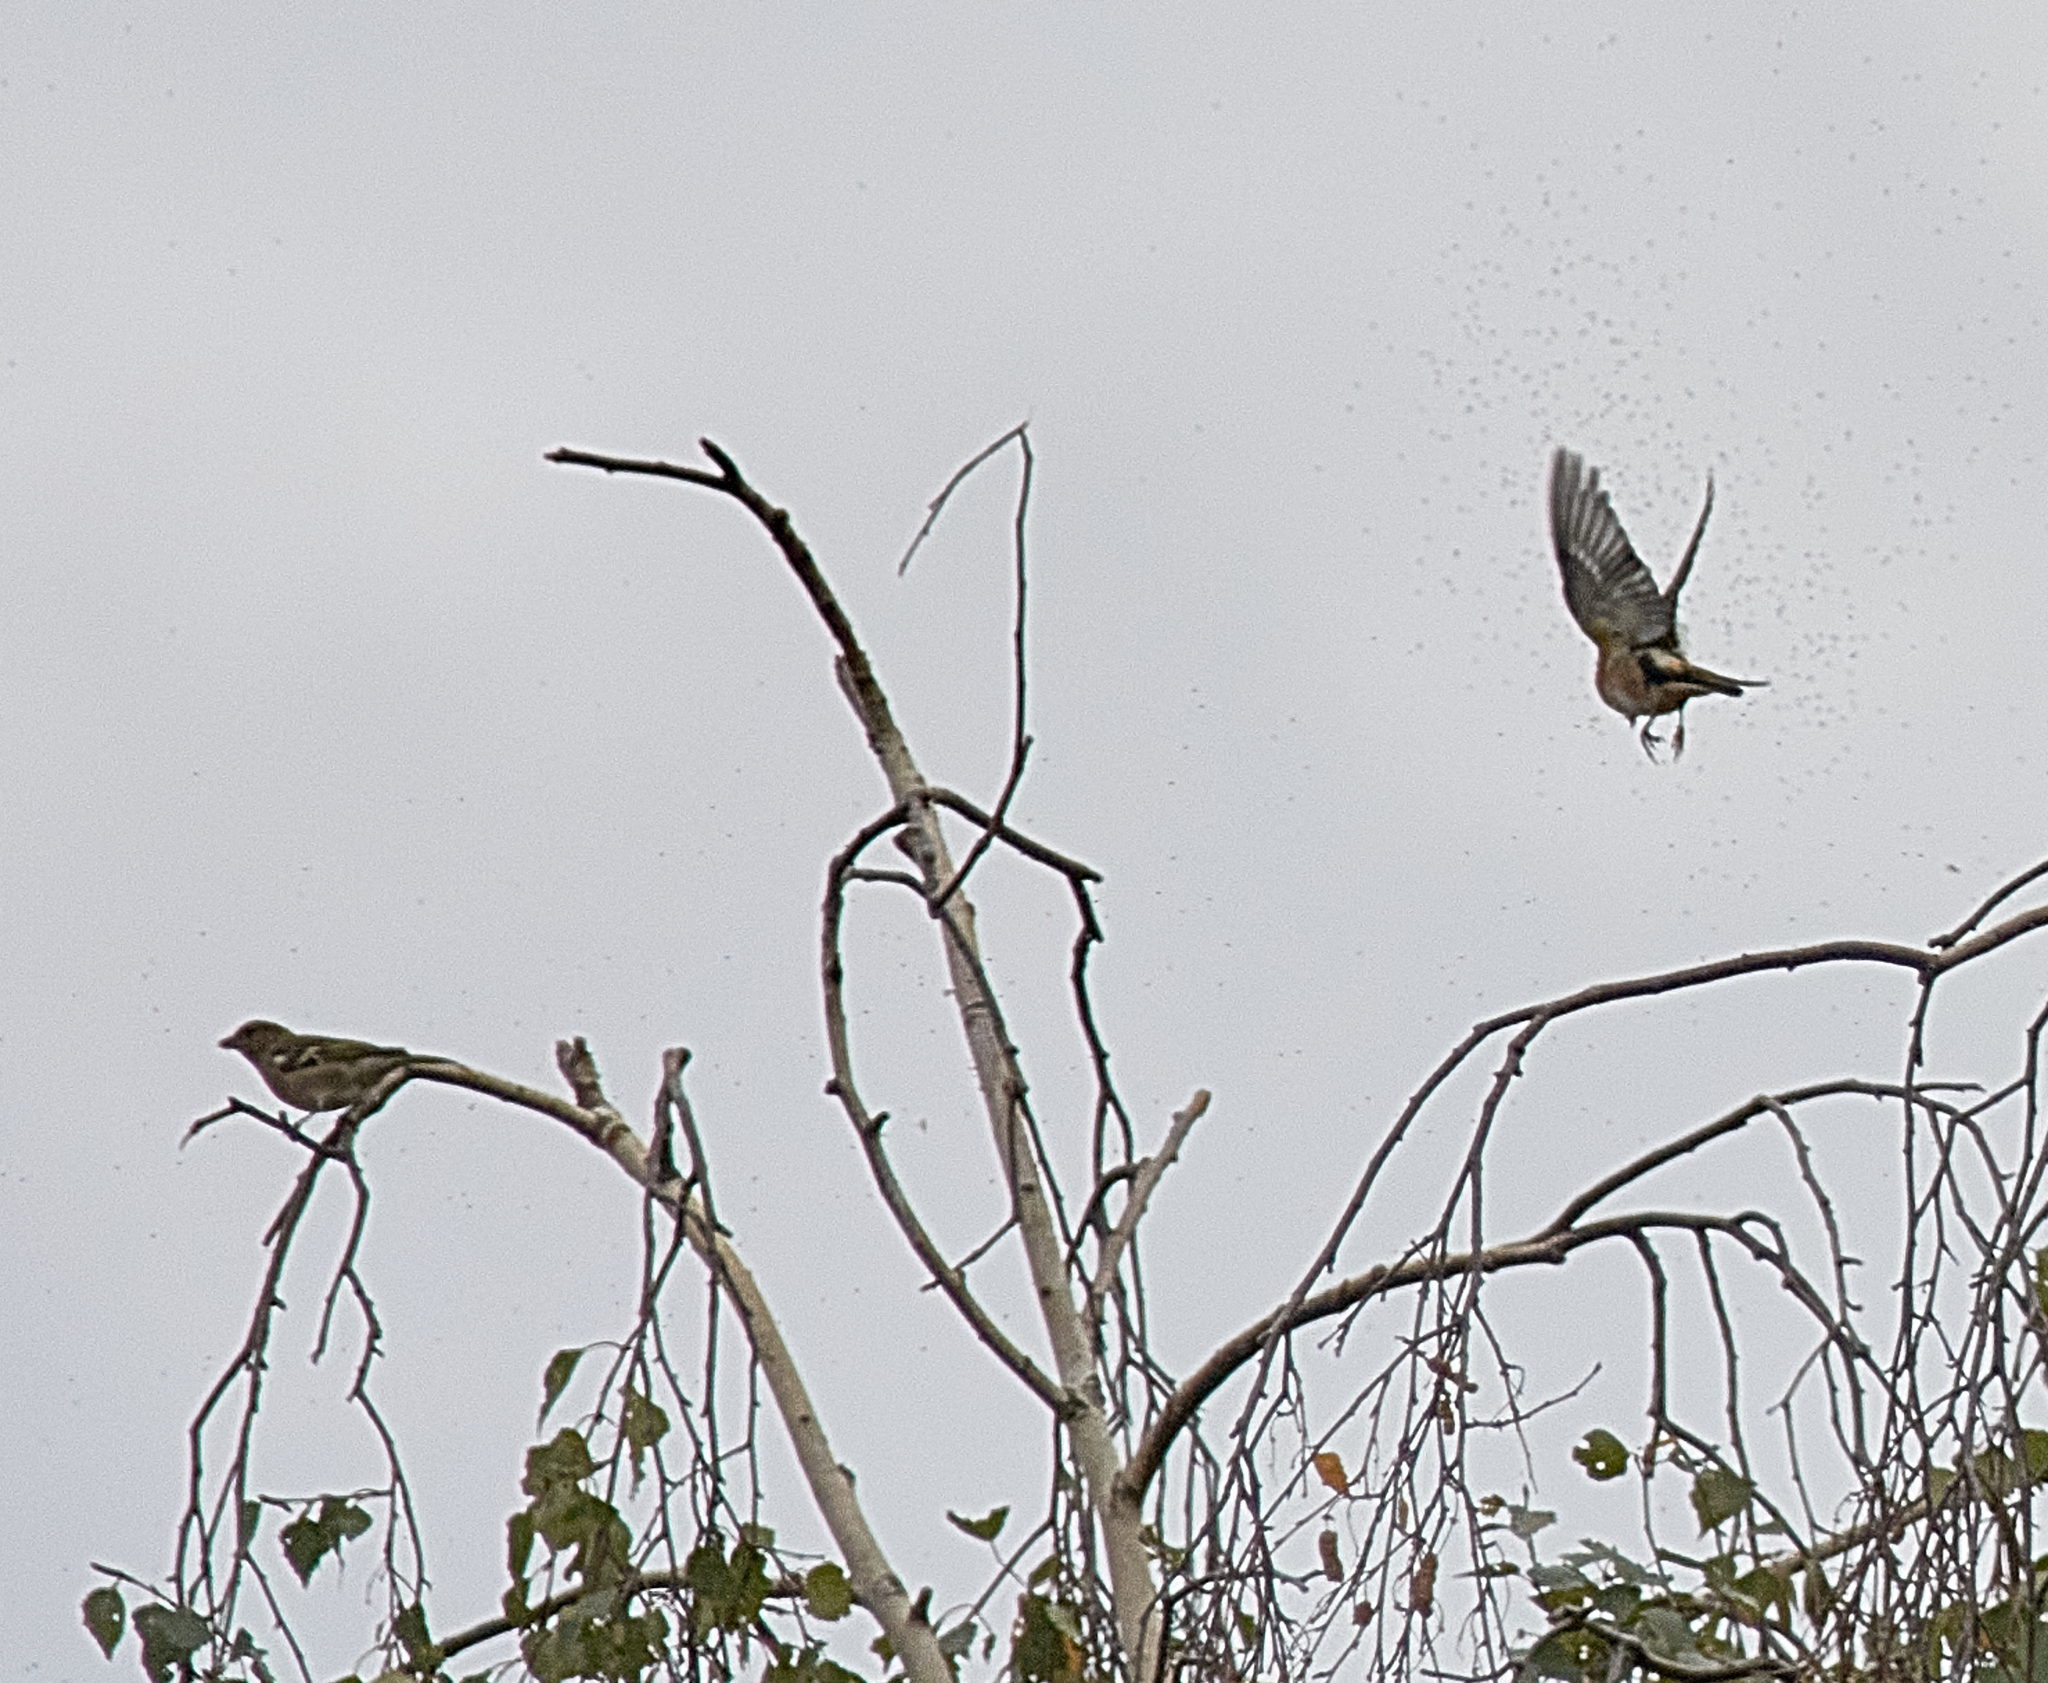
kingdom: Animalia
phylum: Chordata
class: Aves
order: Passeriformes
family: Fringillidae
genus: Fringilla
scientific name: Fringilla coelebs
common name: Common chaffinch
